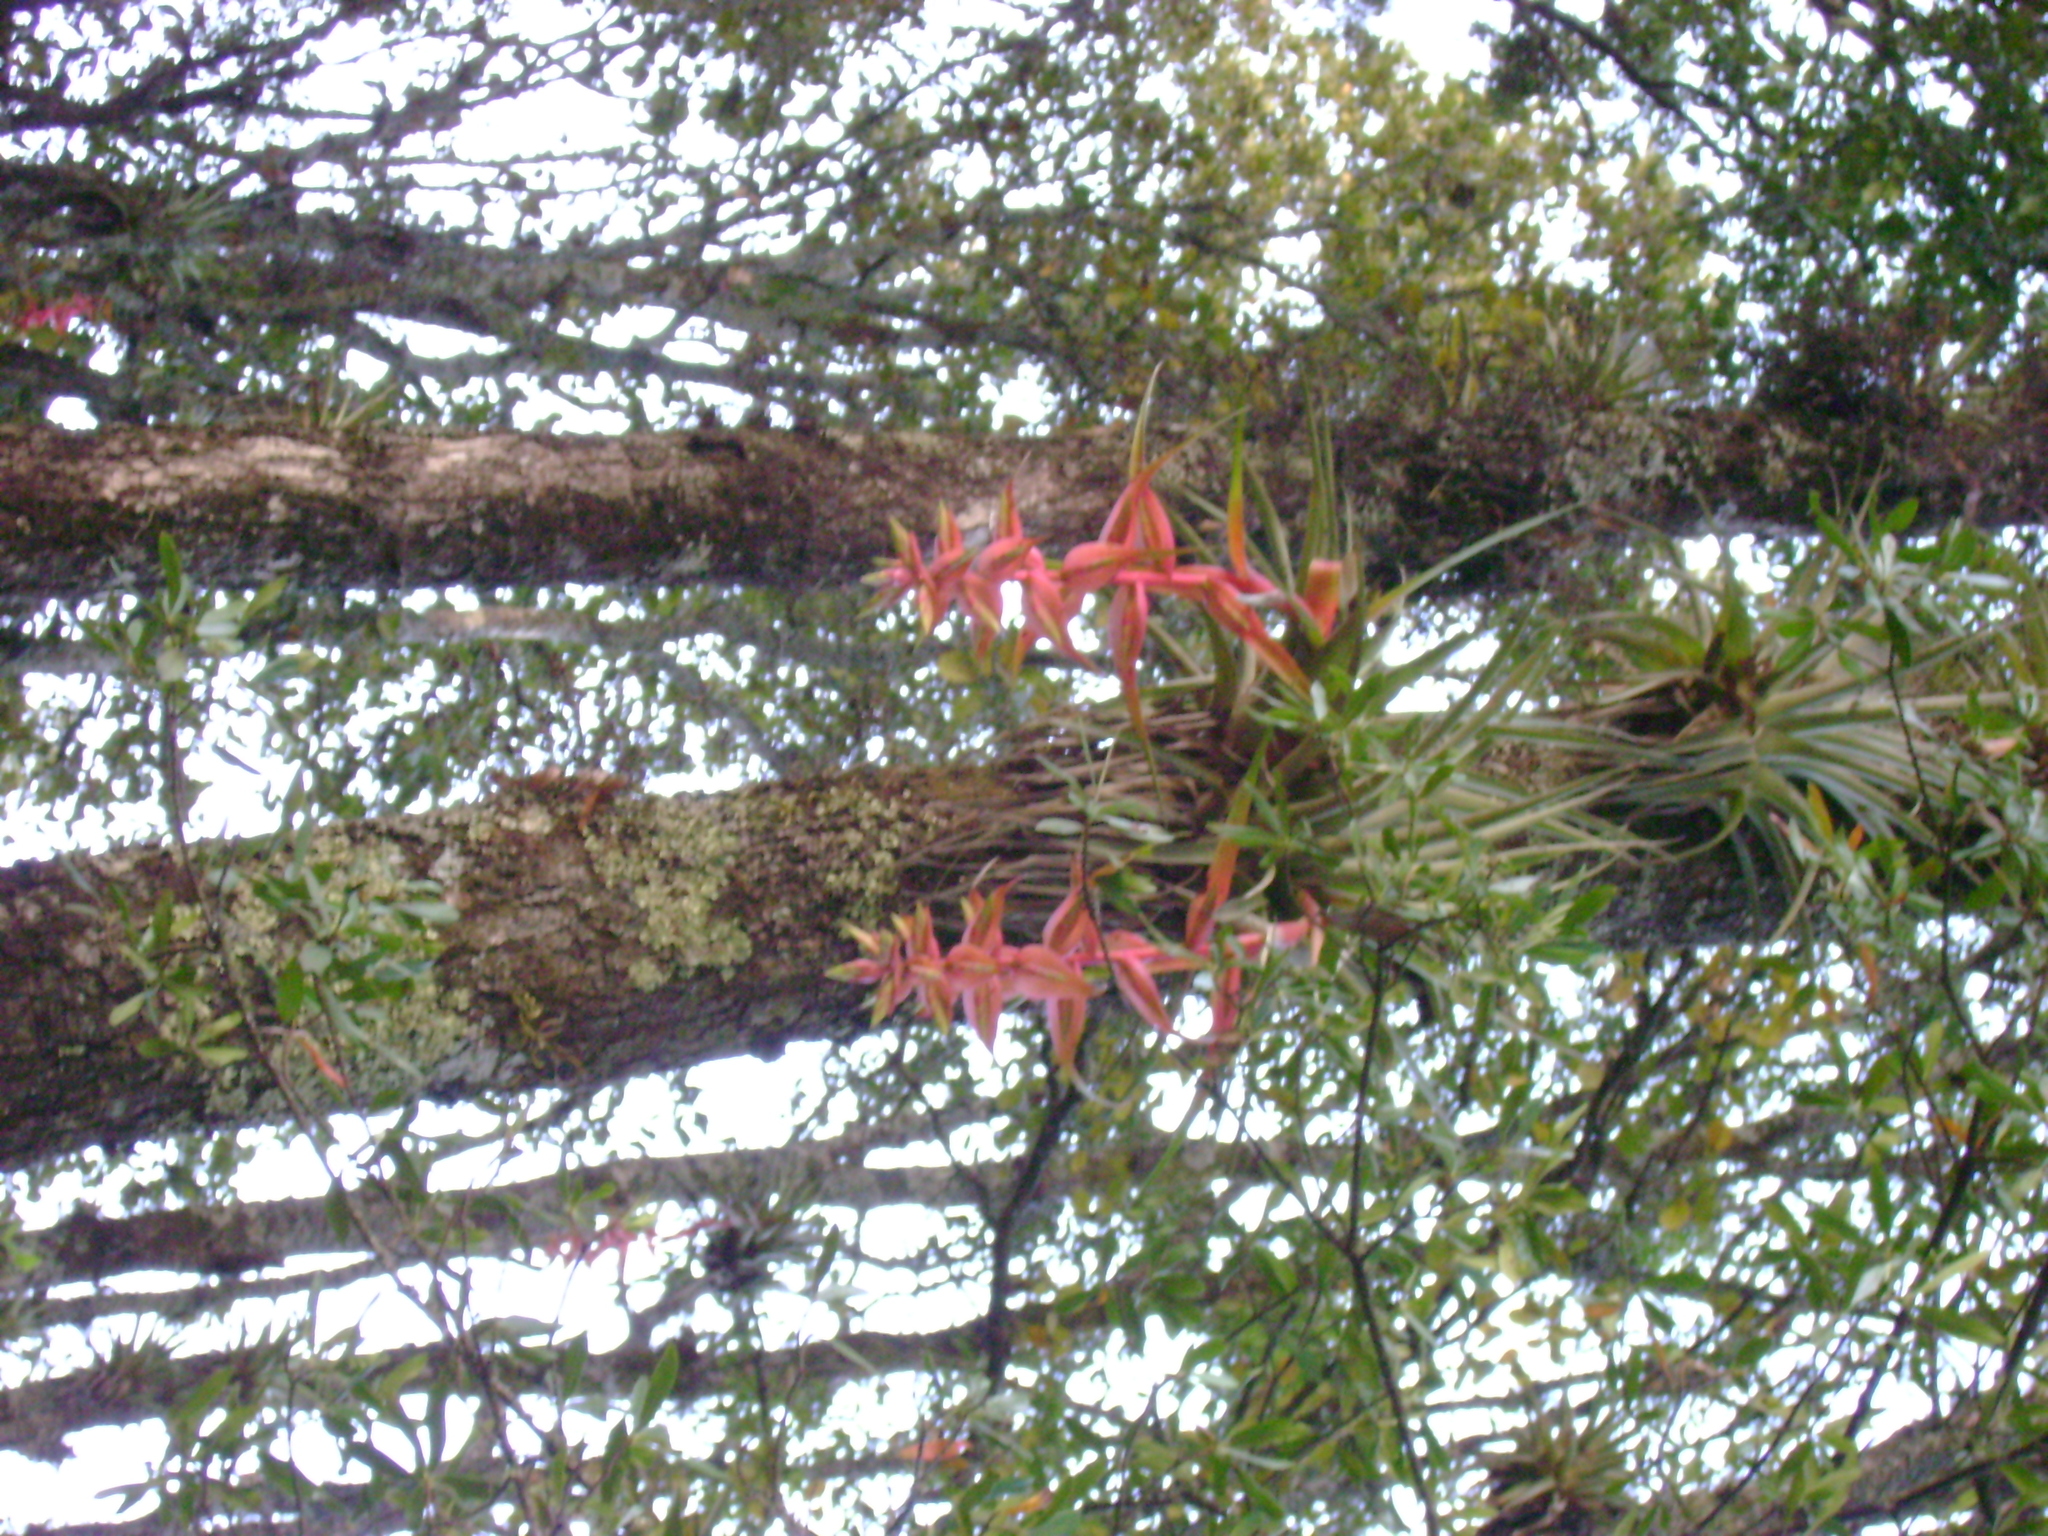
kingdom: Plantae
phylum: Tracheophyta
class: Liliopsida
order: Poales
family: Bromeliaceae
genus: Tillandsia
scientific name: Tillandsia prodigiosa
